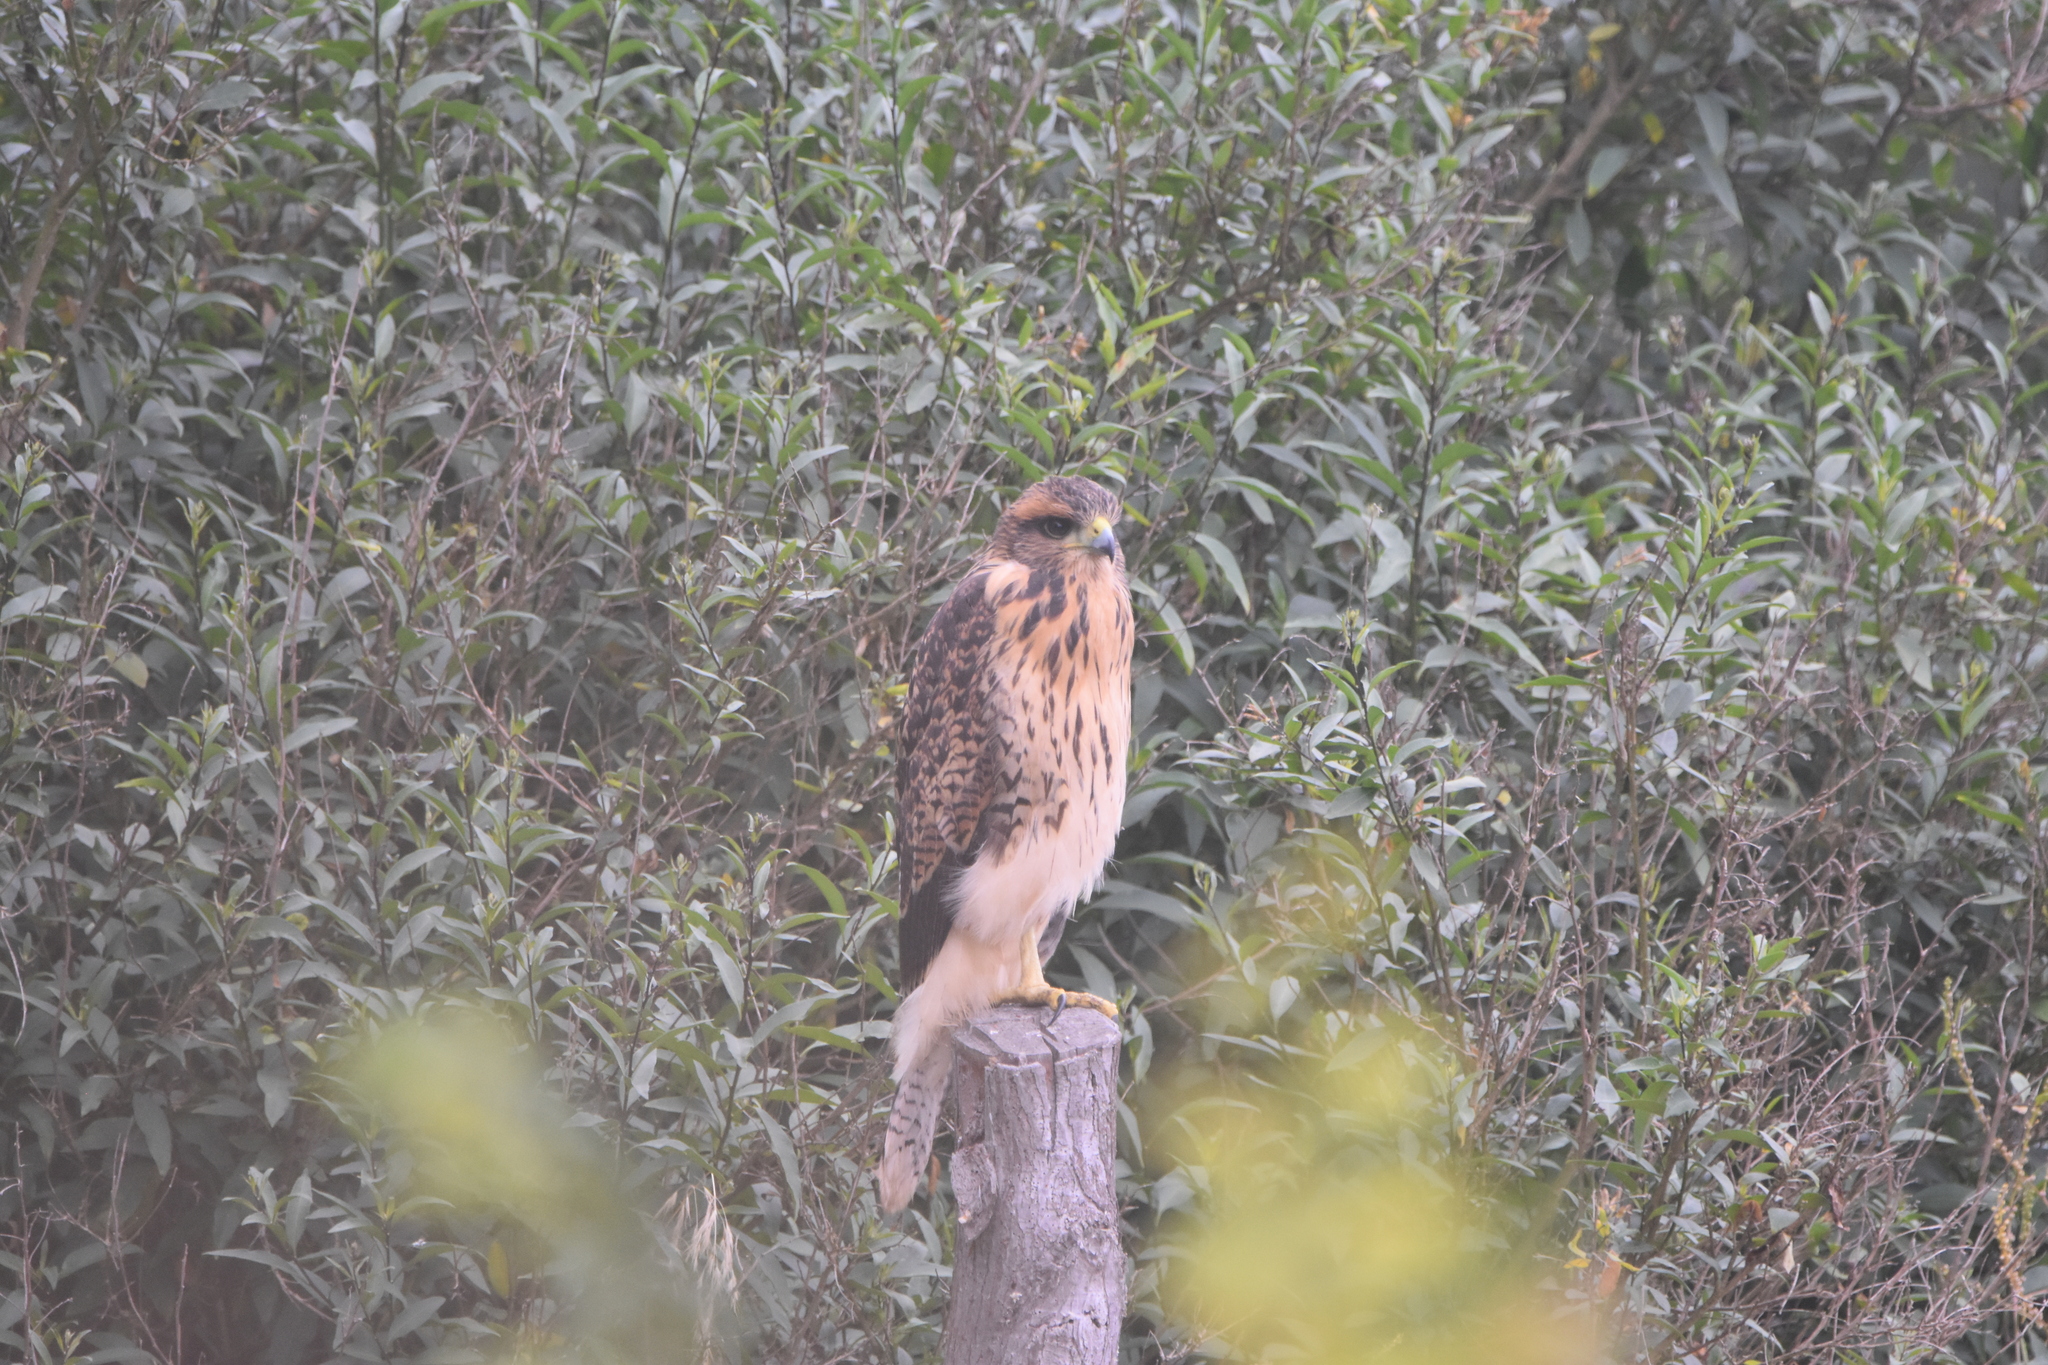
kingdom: Animalia
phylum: Chordata
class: Aves
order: Accipitriformes
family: Accipitridae
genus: Parabuteo
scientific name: Parabuteo unicinctus
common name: Harris's hawk
